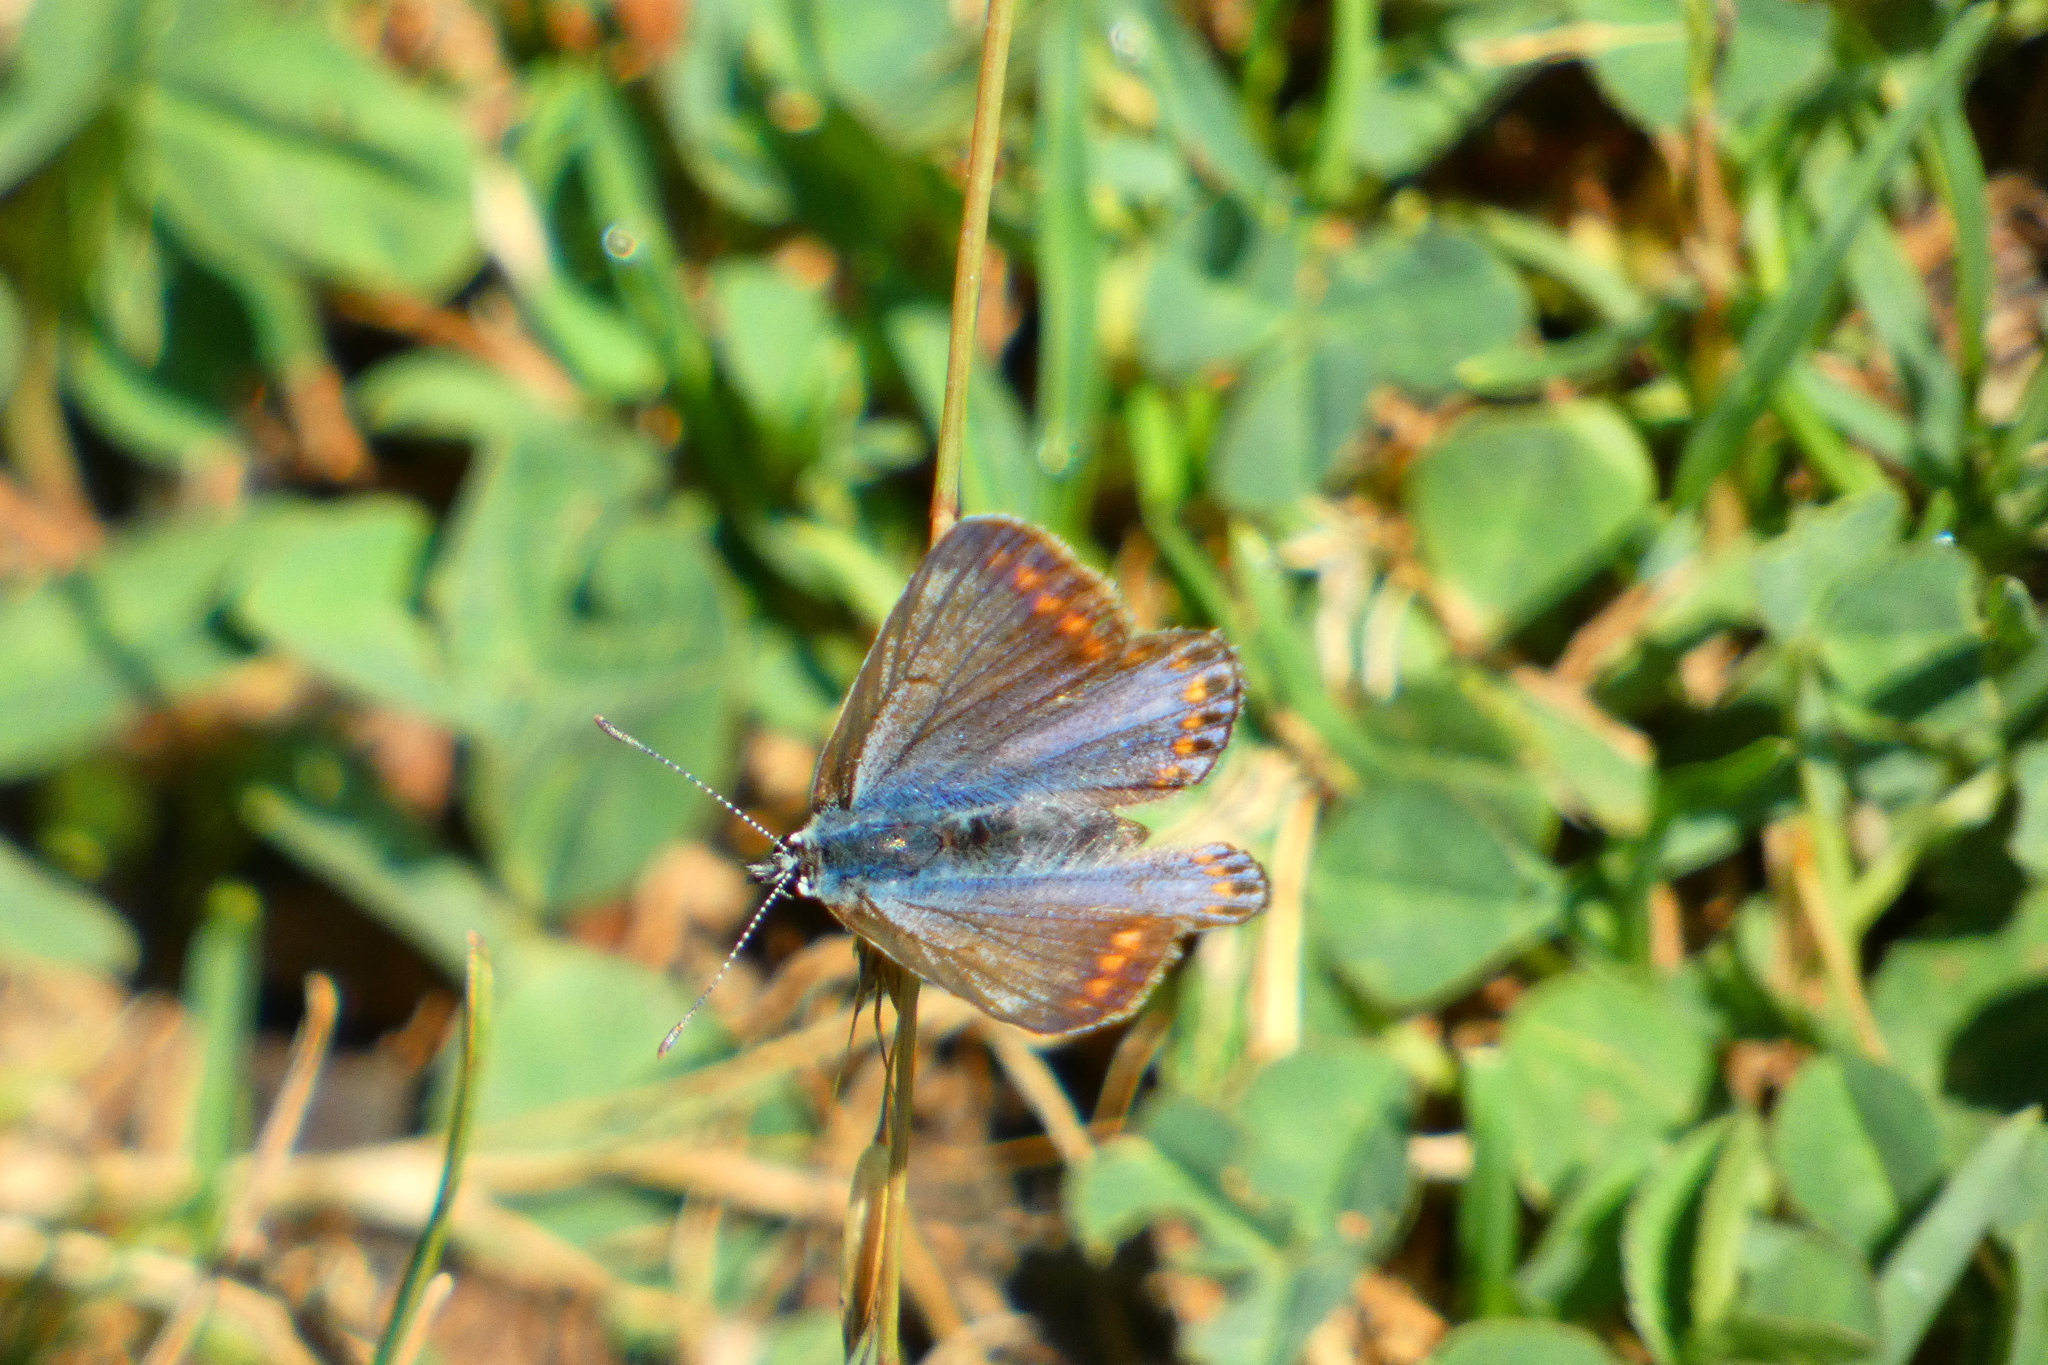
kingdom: Animalia
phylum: Arthropoda
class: Insecta
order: Lepidoptera
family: Lycaenidae
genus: Polyommatus
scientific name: Polyommatus icarus
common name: Common blue
